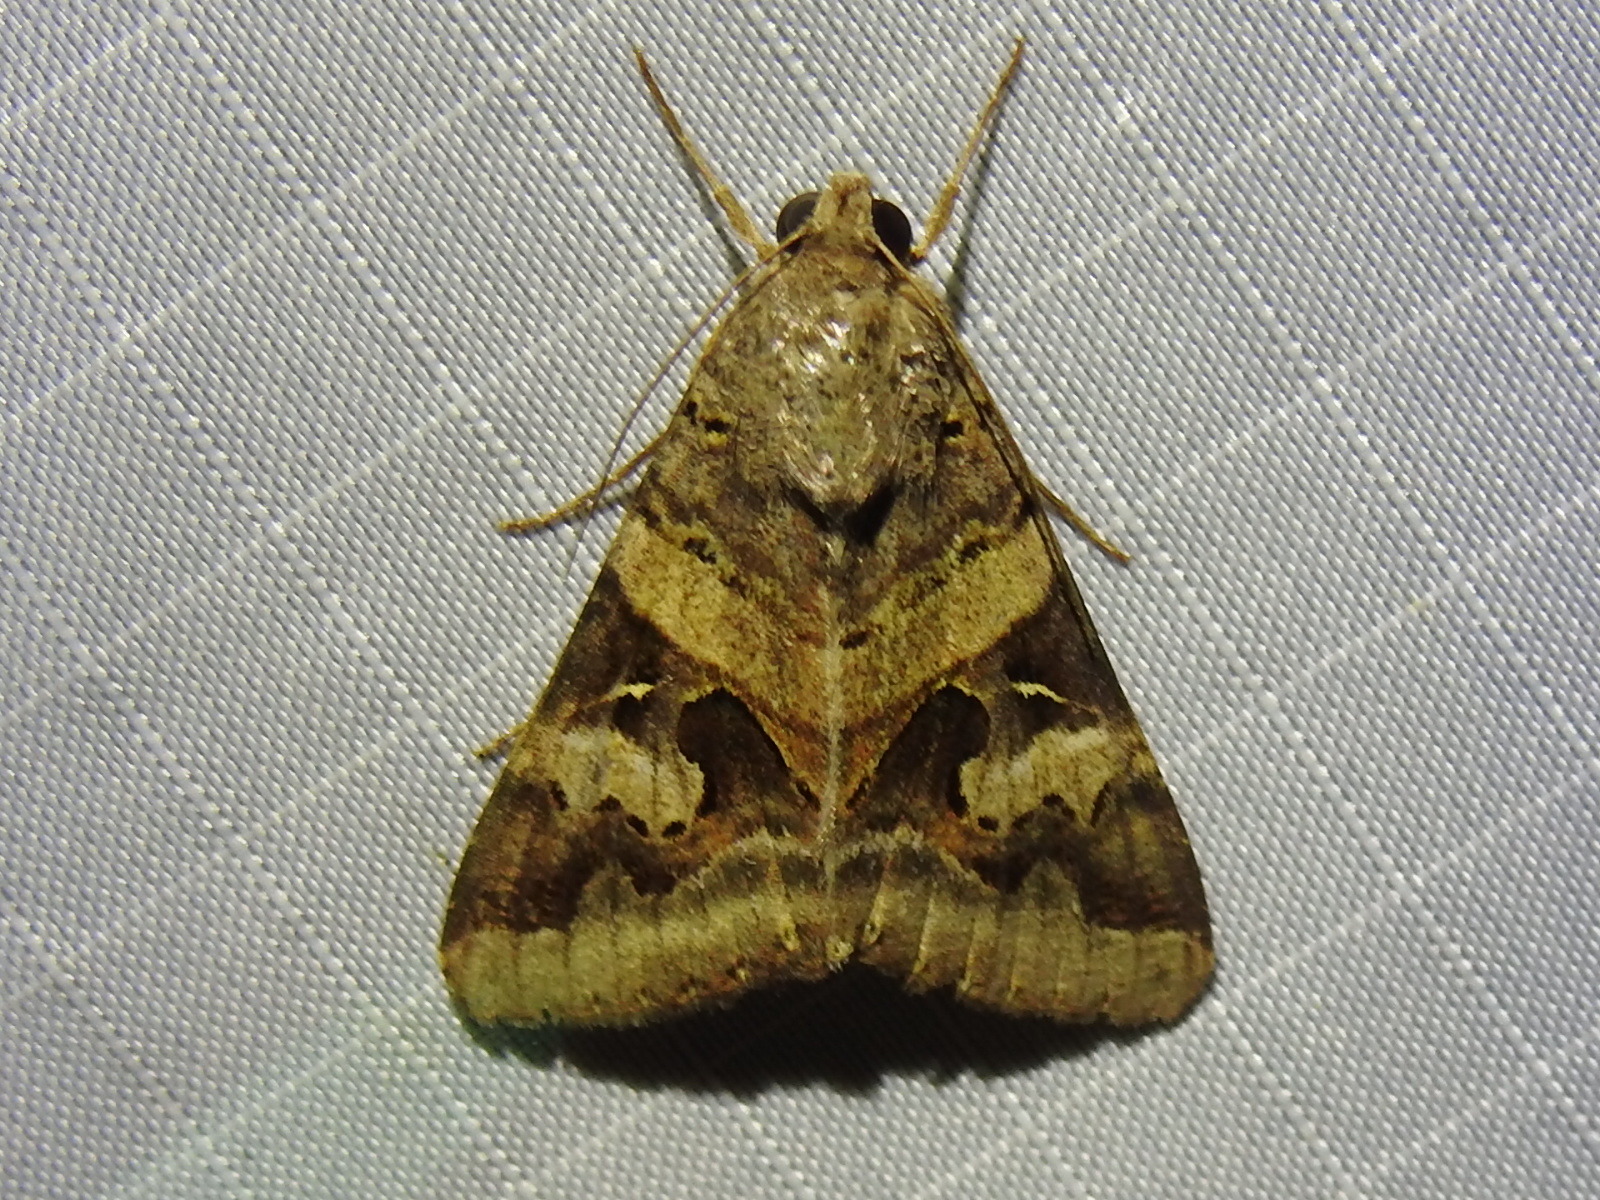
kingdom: Animalia
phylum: Arthropoda
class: Insecta
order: Lepidoptera
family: Erebidae
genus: Melipotis
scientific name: Melipotis indomita
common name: Moth
